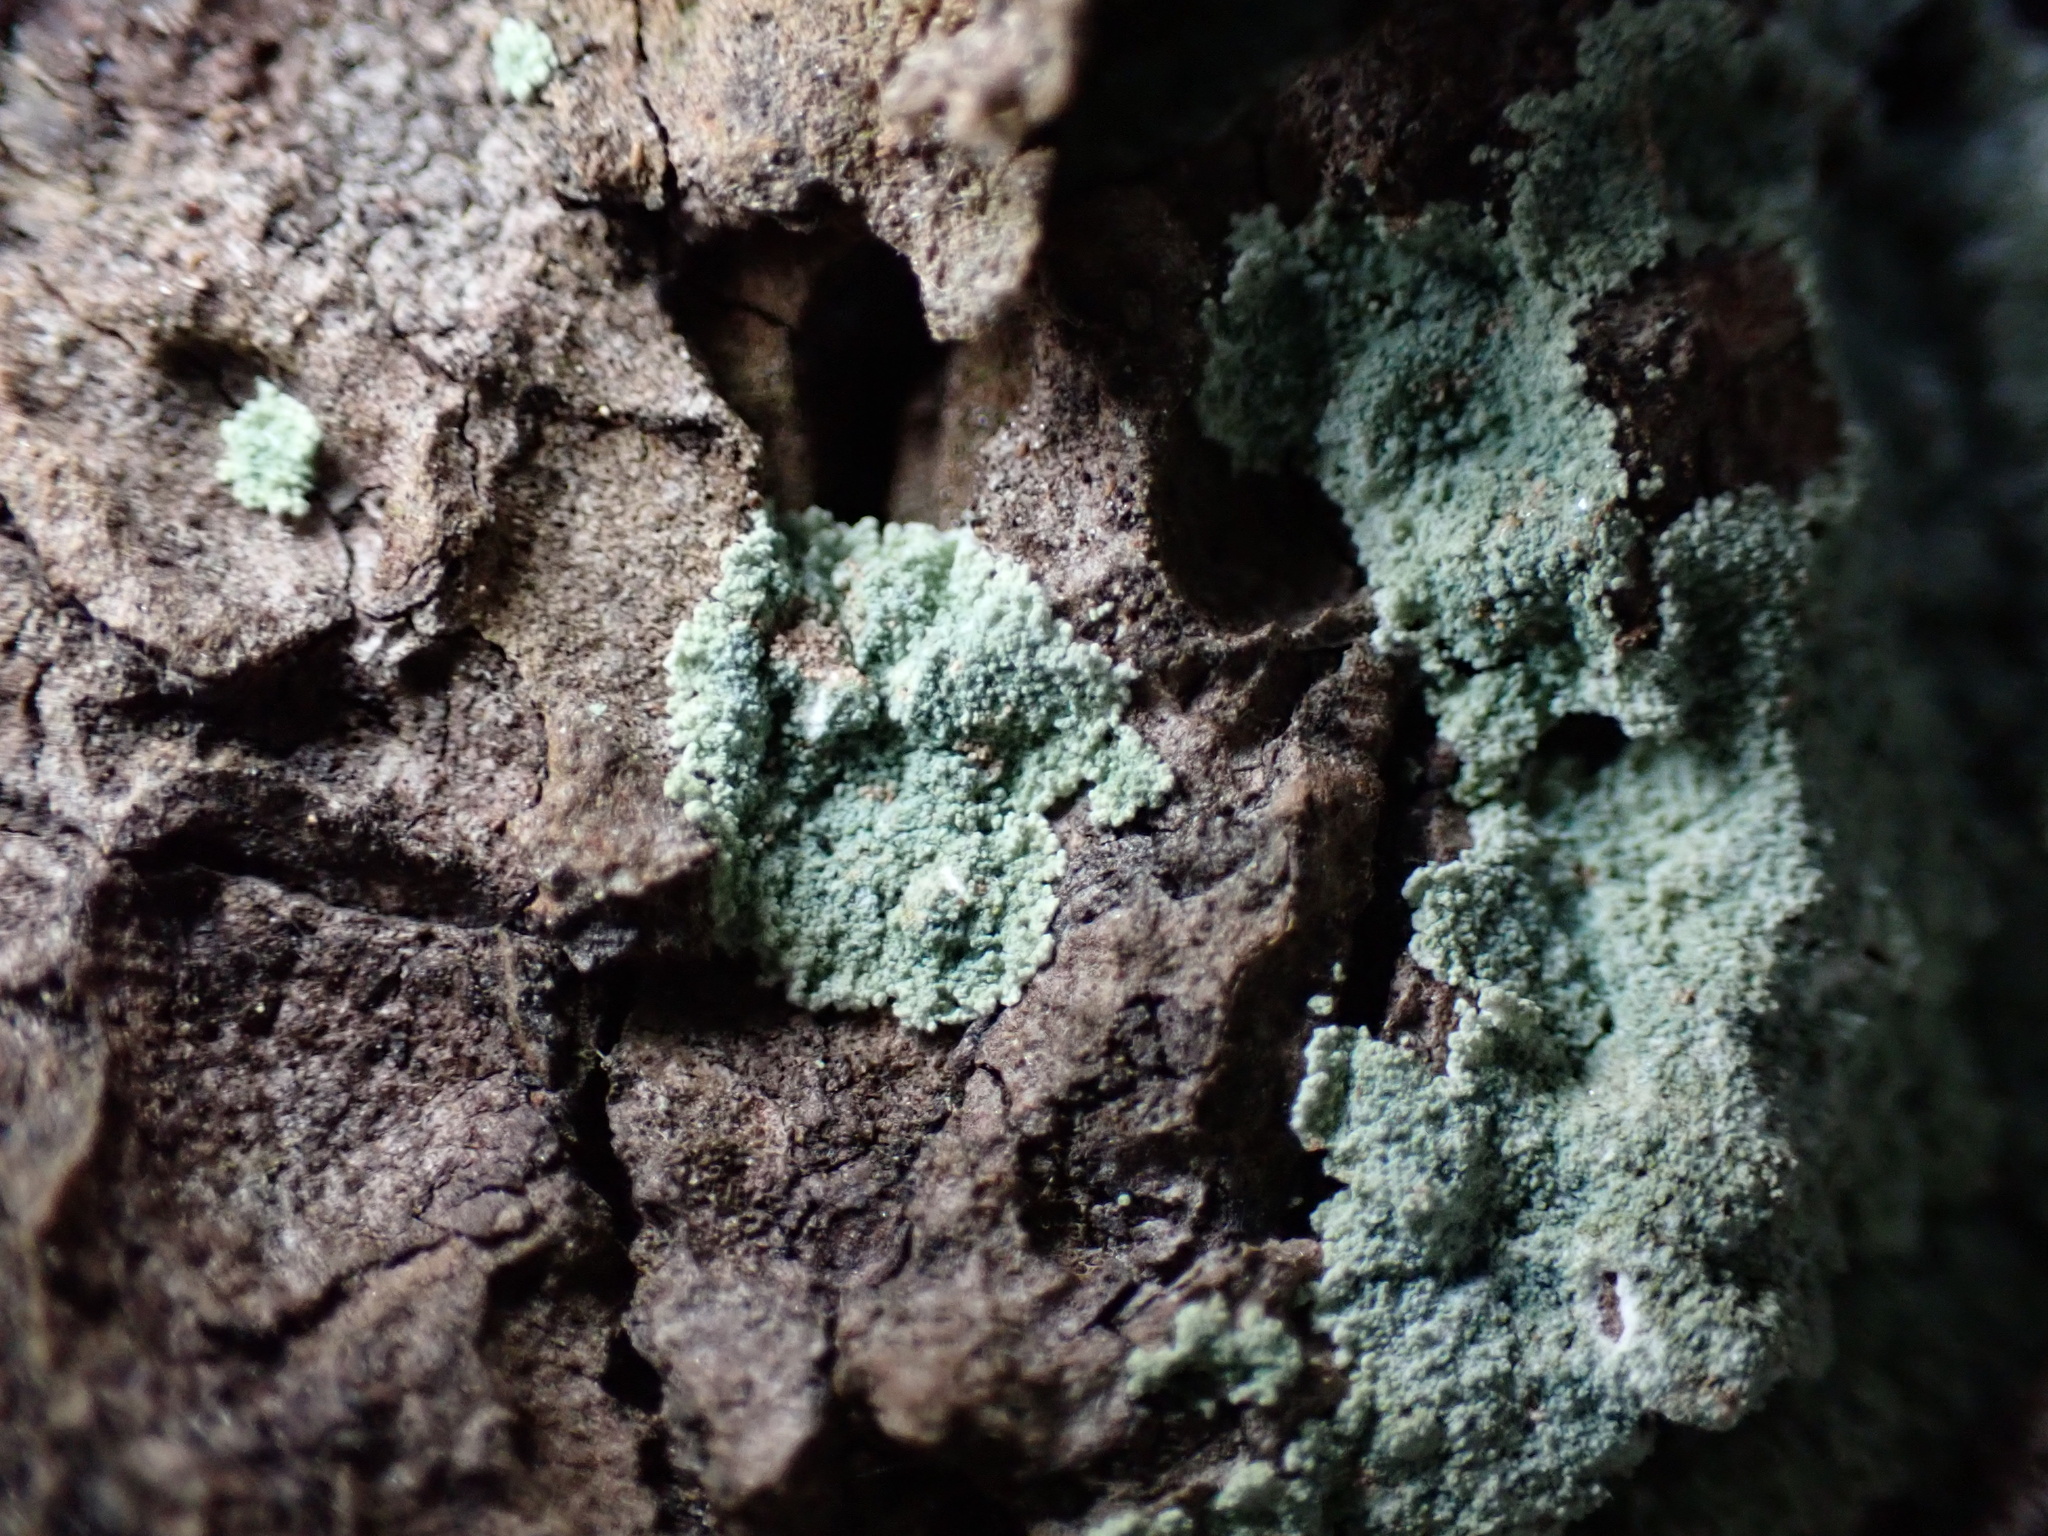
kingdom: Fungi
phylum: Ascomycota
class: Lecanoromycetes
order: Lecanorales
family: Stereocaulaceae
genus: Lepraria
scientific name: Lepraria lobificans
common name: Fluffy dust lichen
